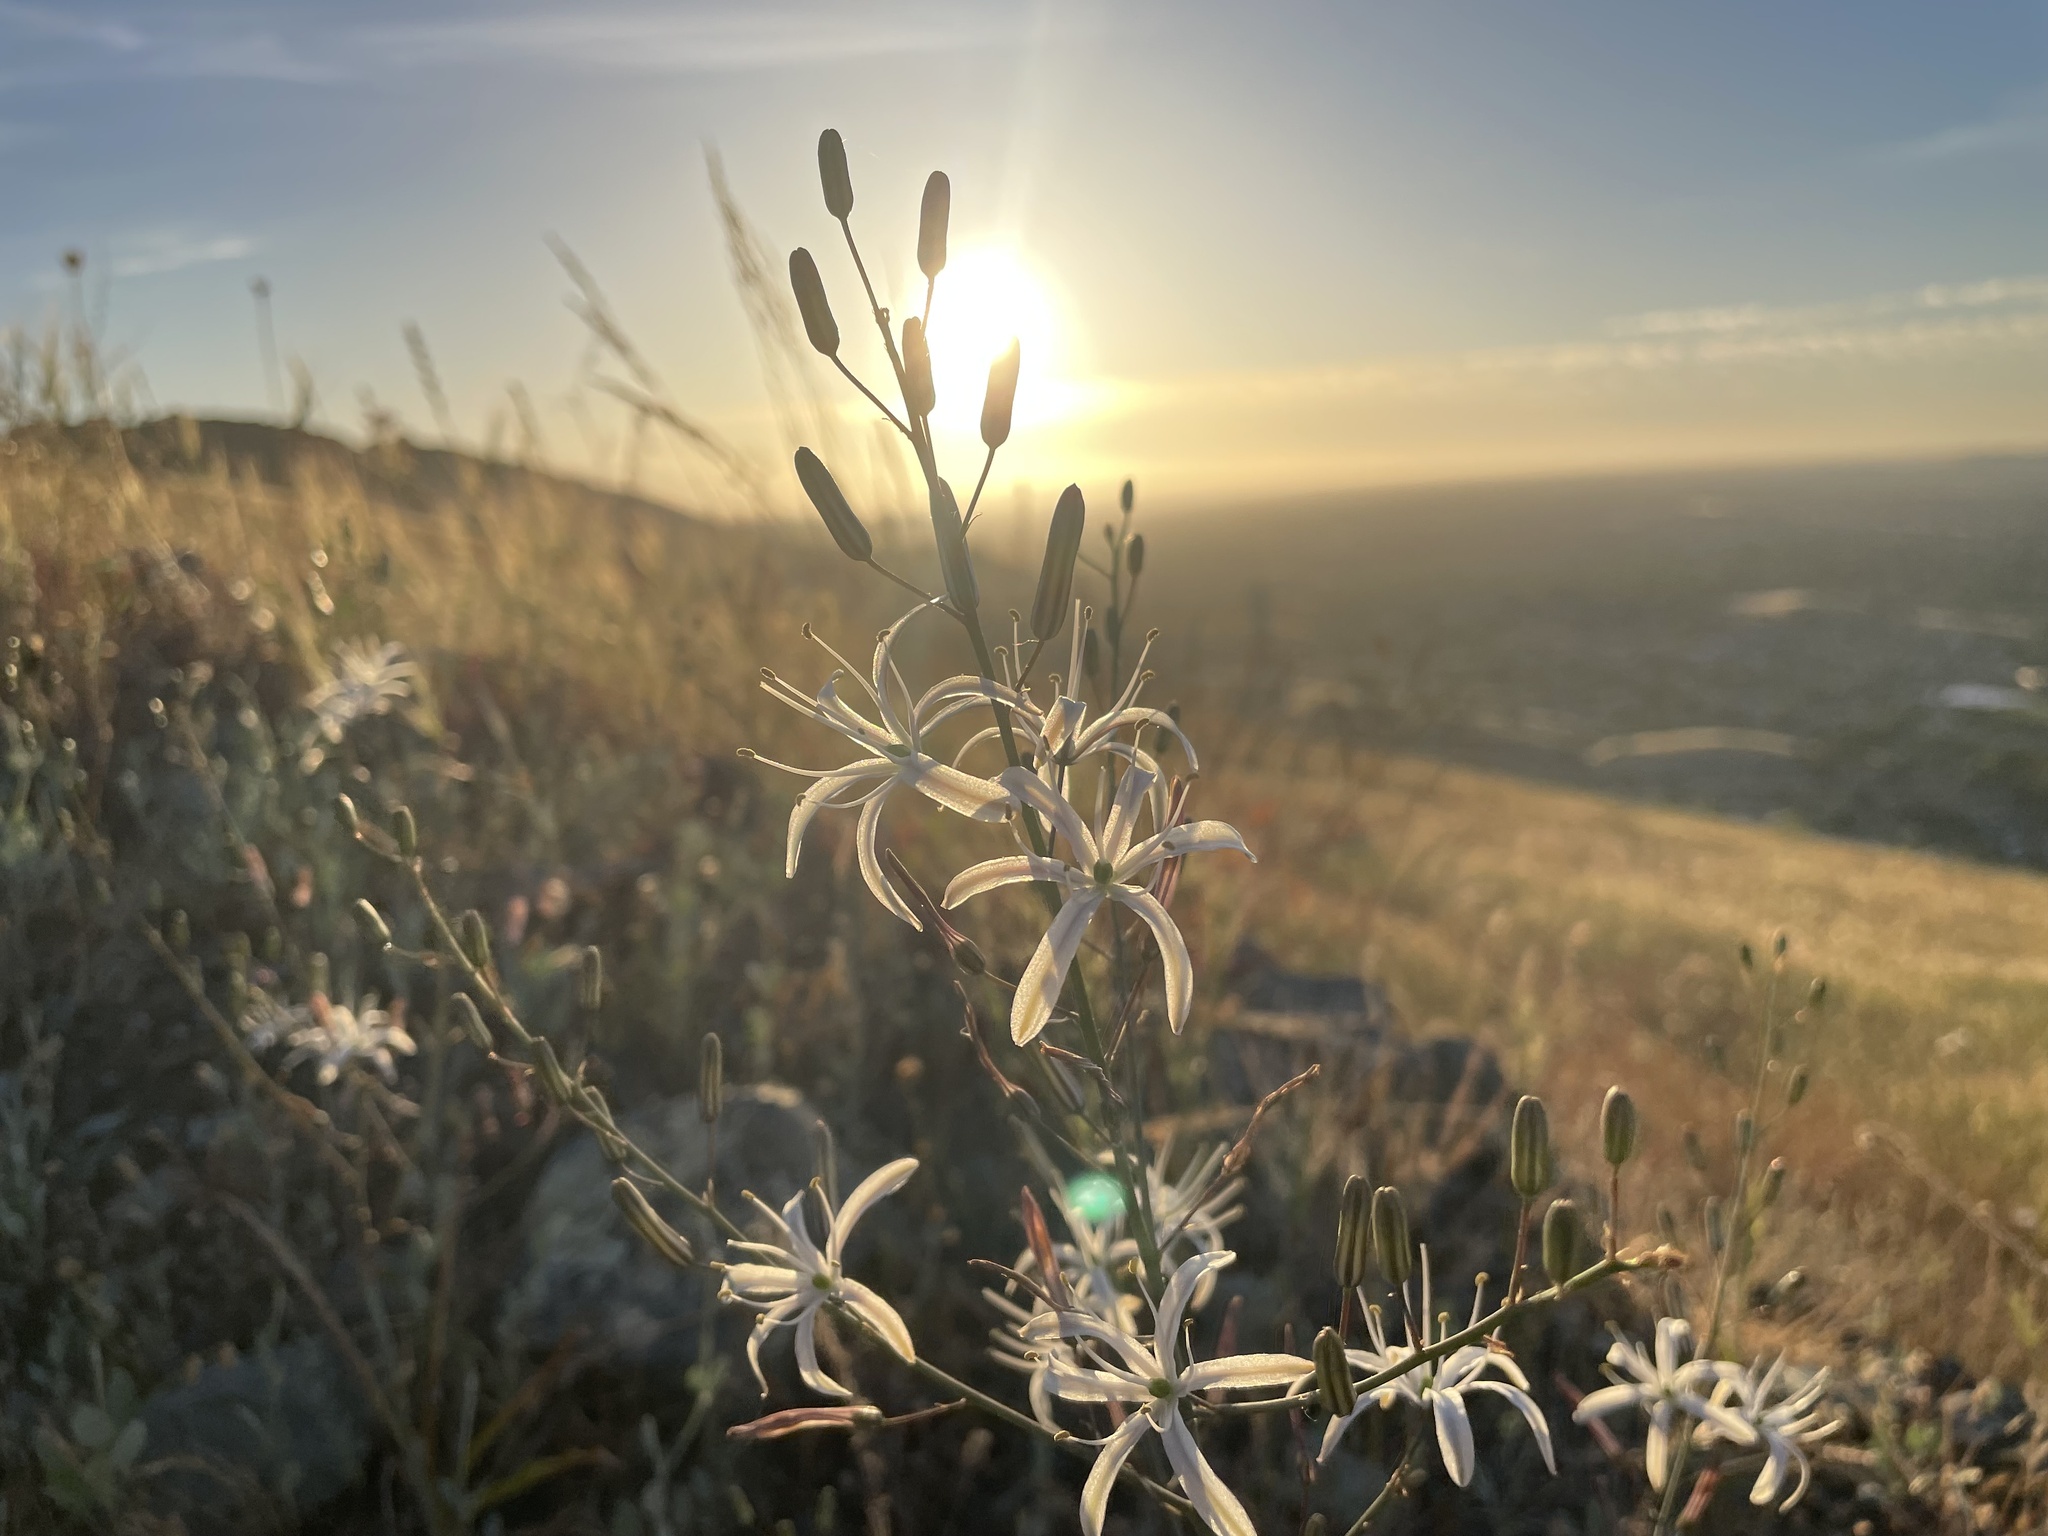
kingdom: Plantae
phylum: Tracheophyta
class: Liliopsida
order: Asparagales
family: Asparagaceae
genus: Chlorogalum
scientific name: Chlorogalum pomeridianum
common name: Amole
